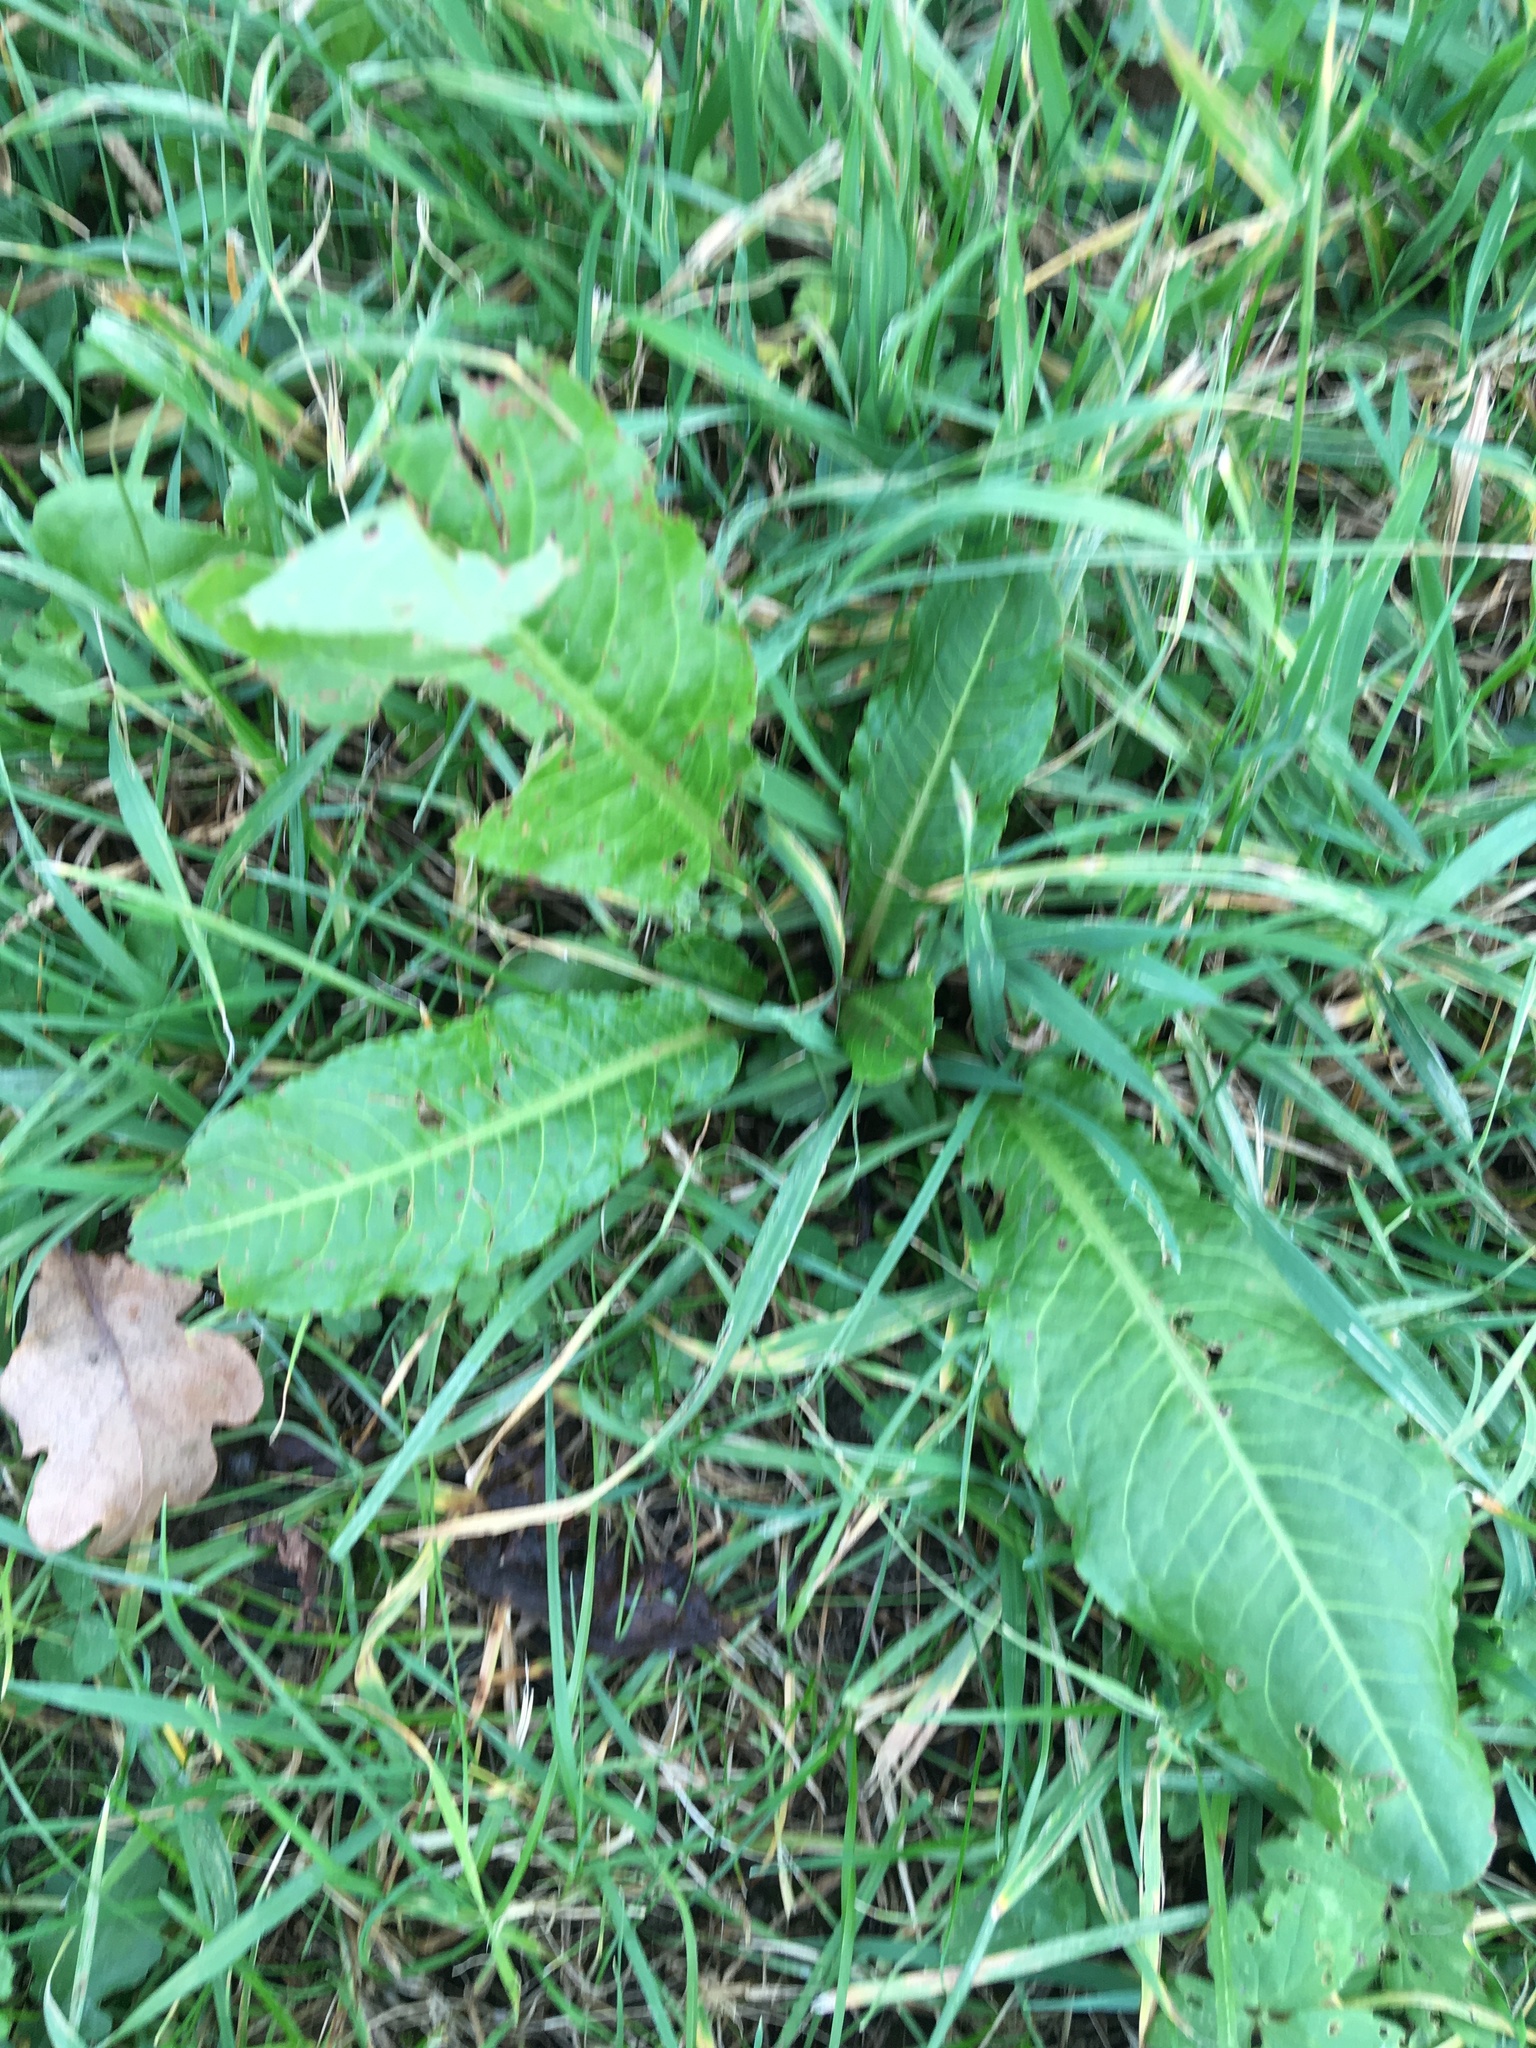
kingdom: Plantae
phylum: Tracheophyta
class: Magnoliopsida
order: Caryophyllales
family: Polygonaceae
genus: Rumex
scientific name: Rumex obtusifolius
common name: Bitter dock
